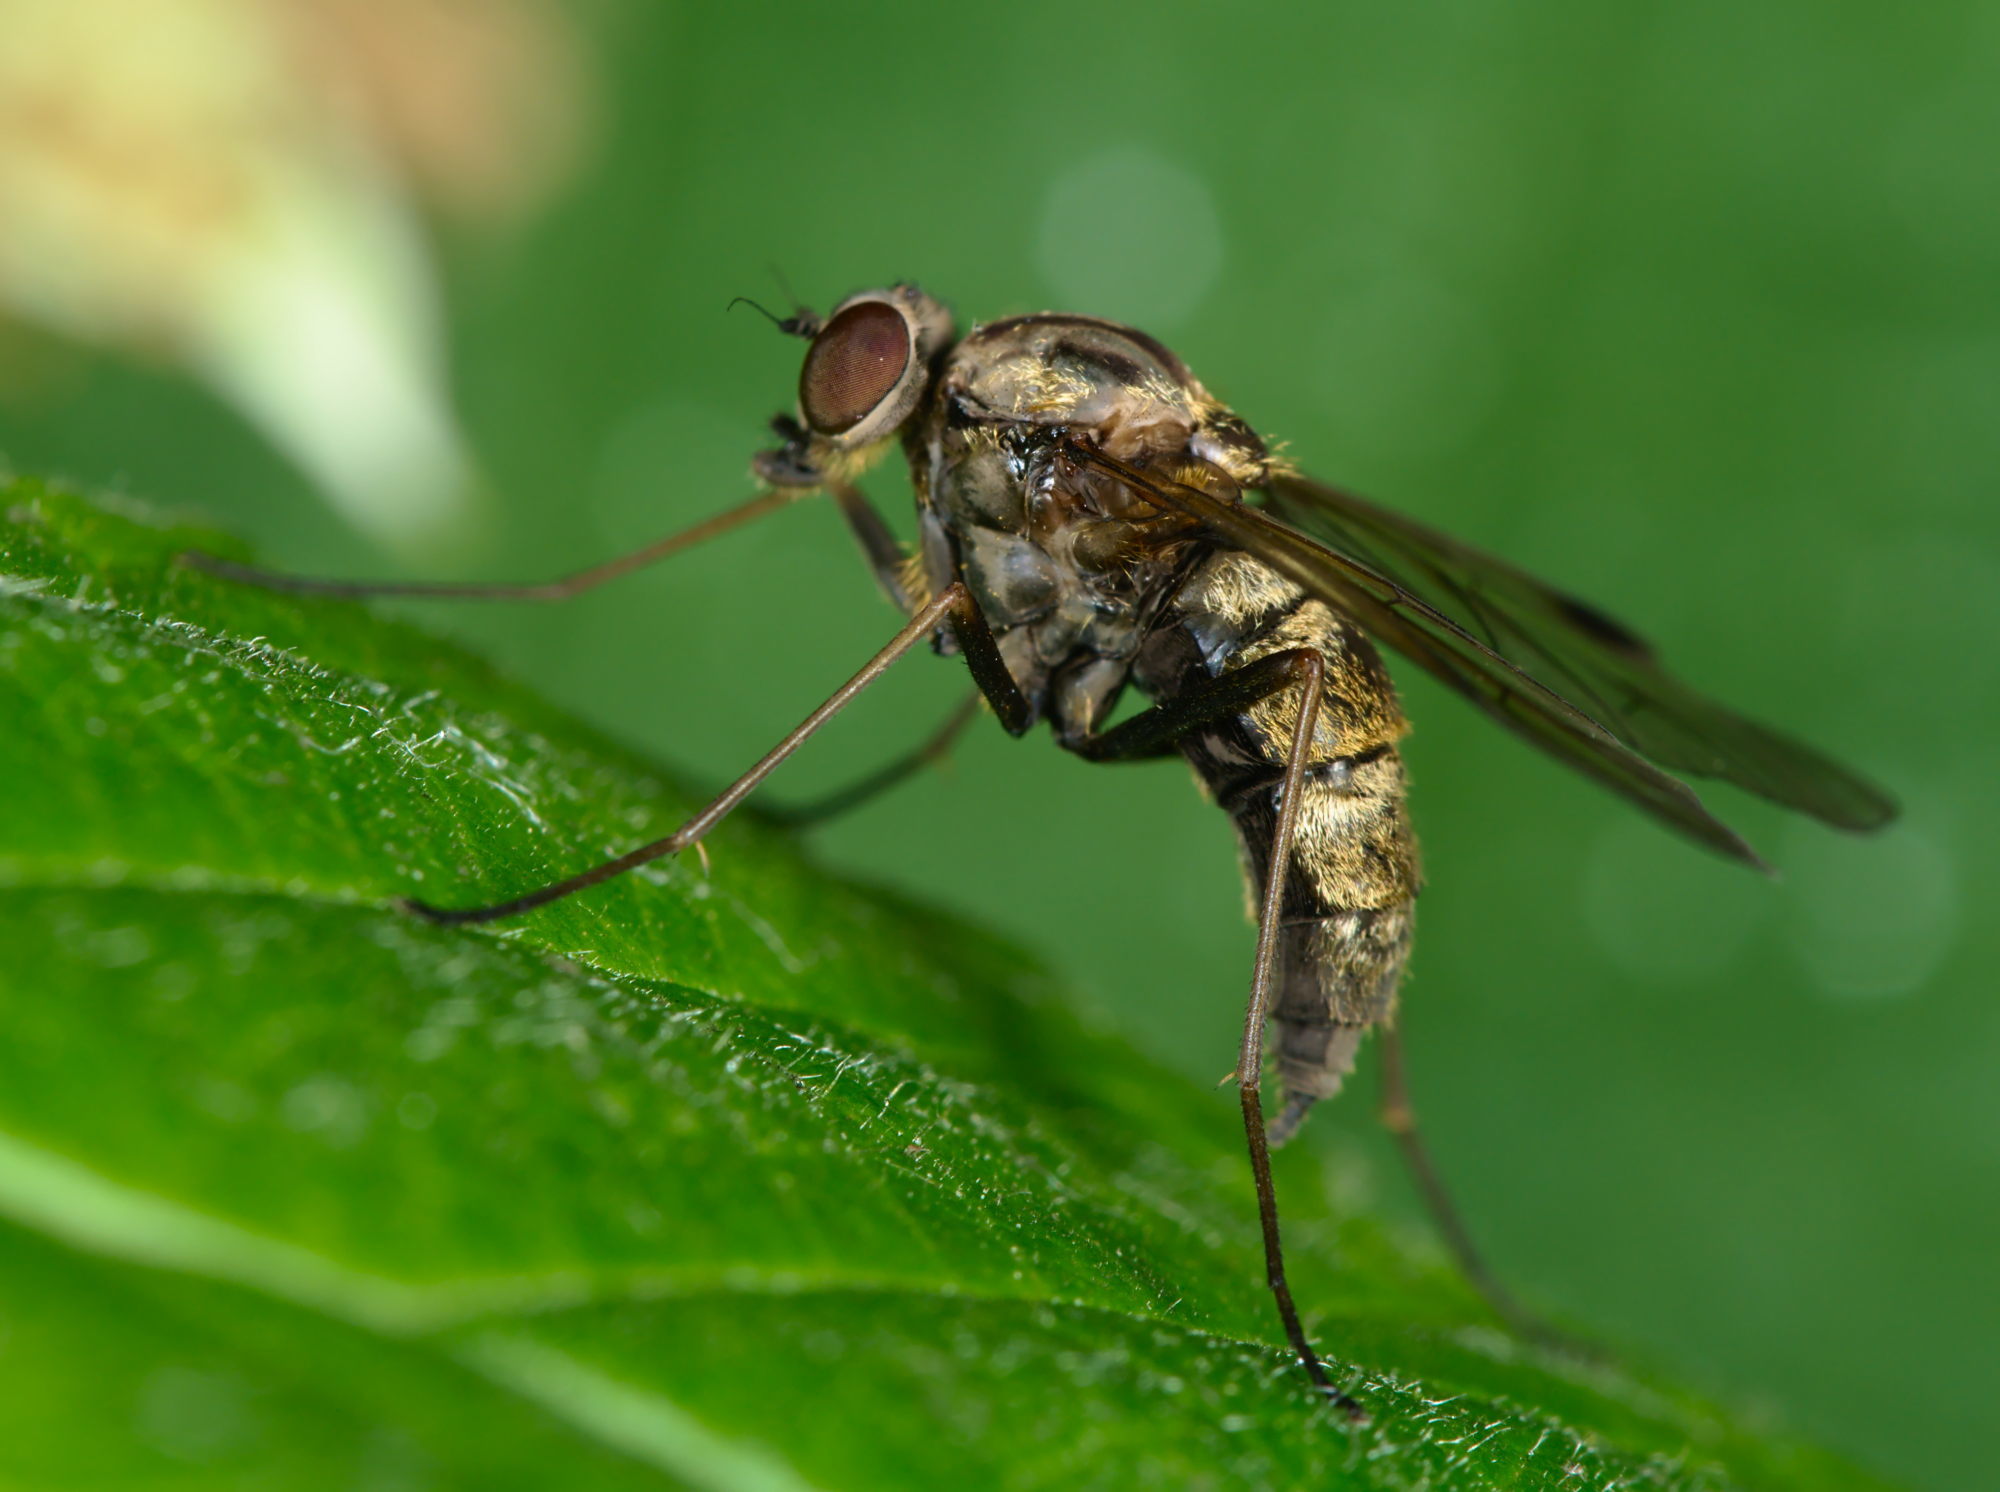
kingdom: Animalia
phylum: Arthropoda
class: Insecta
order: Diptera
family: Rhagionidae
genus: Chrysopilus
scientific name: Chrysopilus cristatus
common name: Black snipefly
